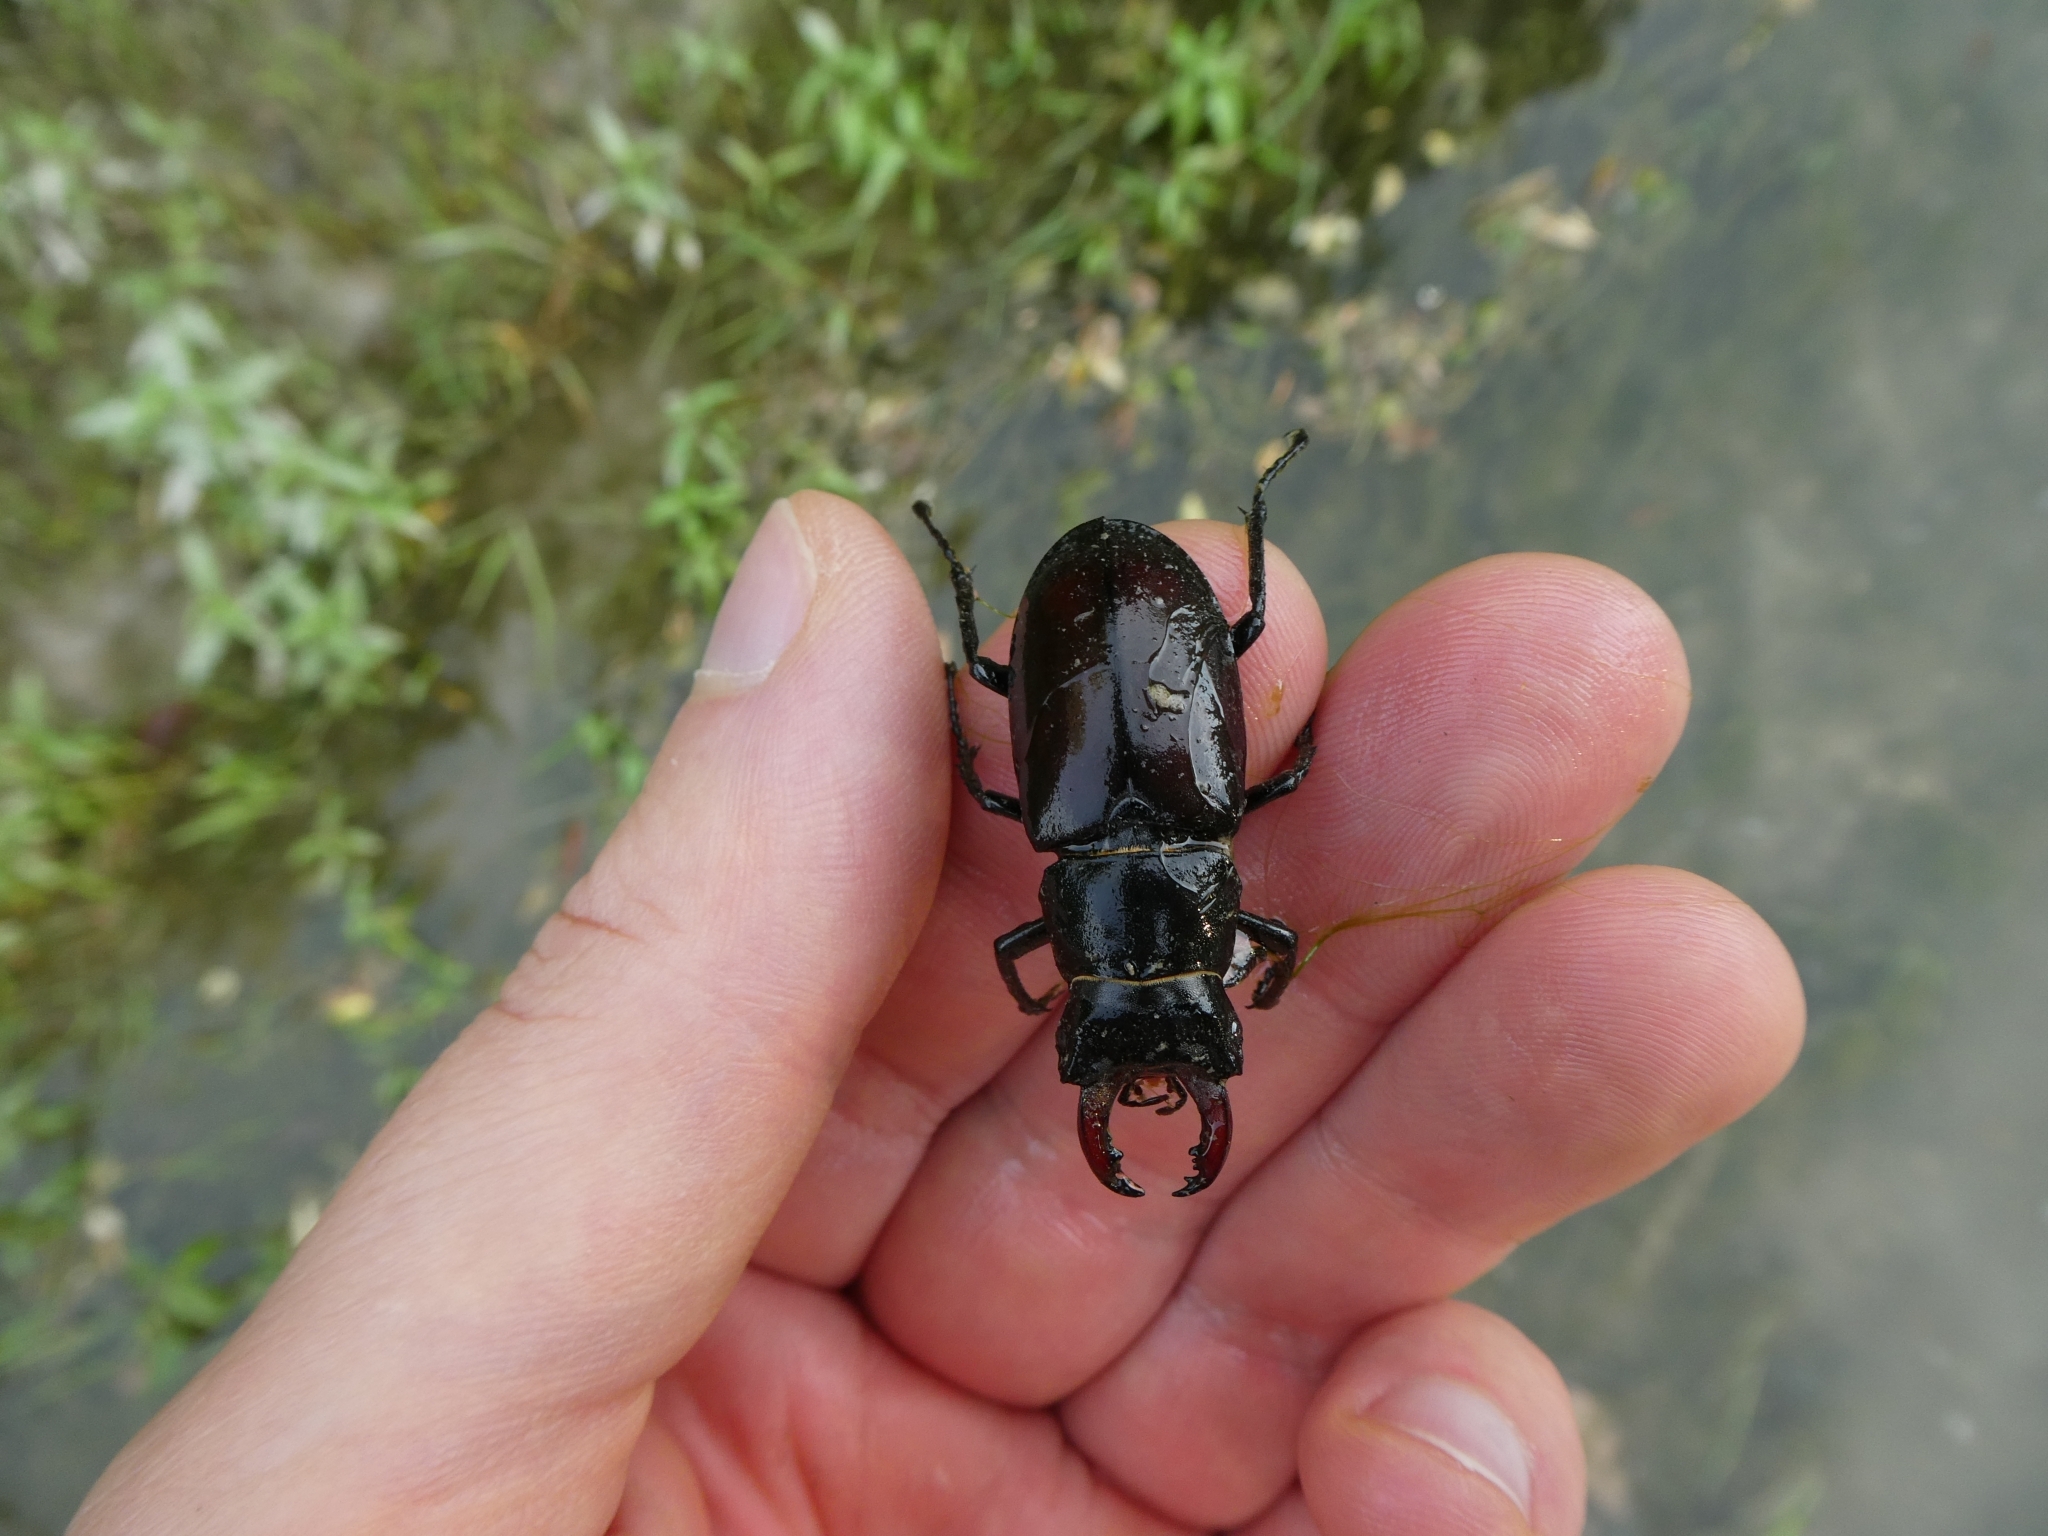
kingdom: Animalia
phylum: Arthropoda
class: Insecta
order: Coleoptera
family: Lucanidae
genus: Lucanus
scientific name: Lucanus cervus
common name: Stag beetle
